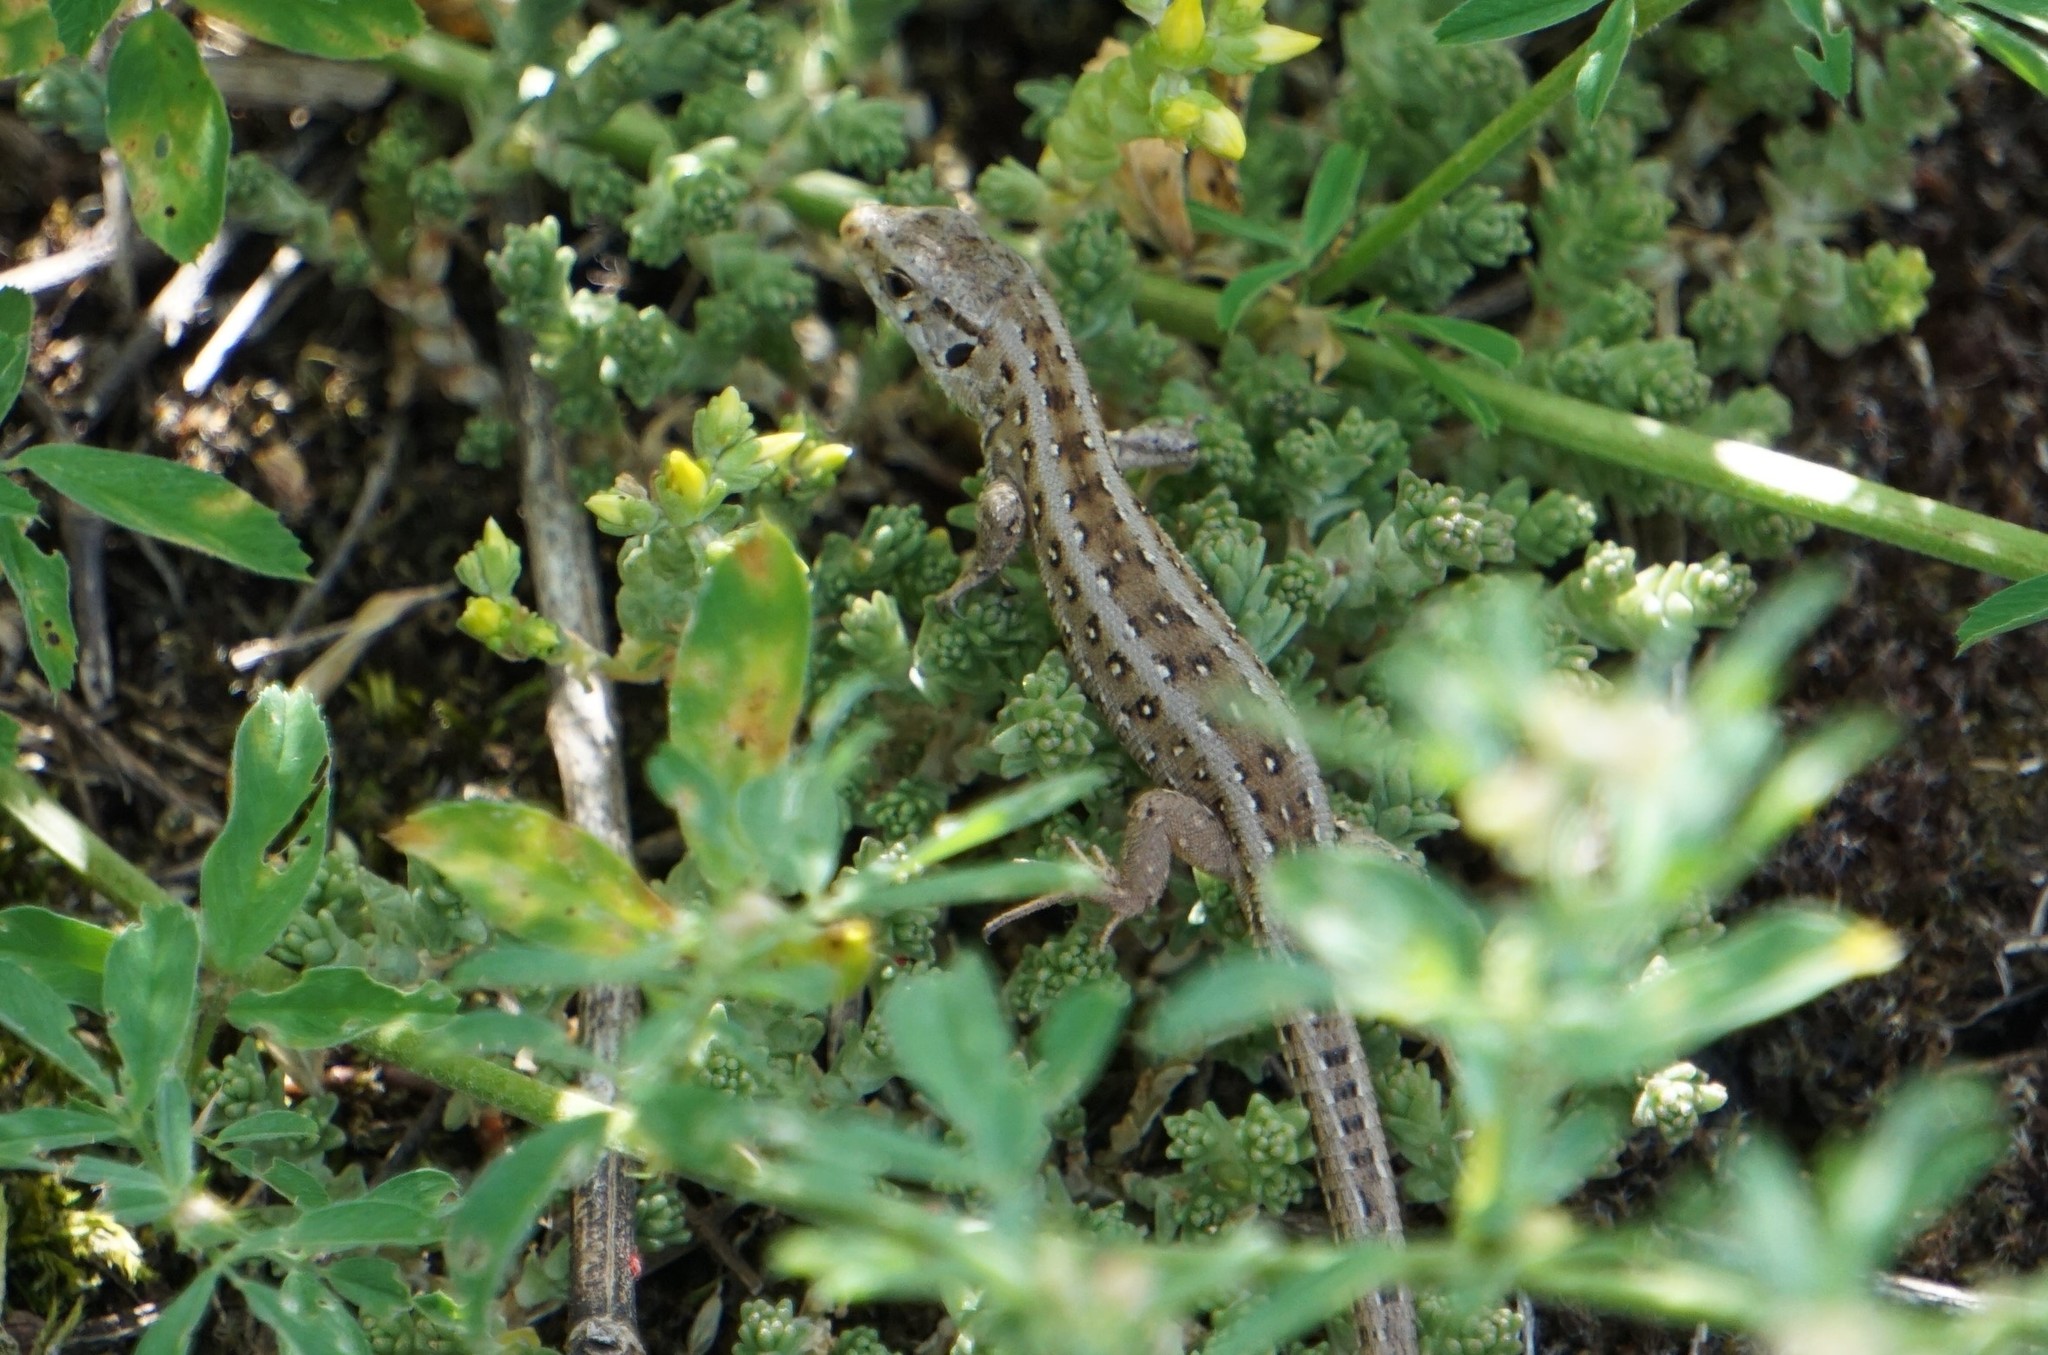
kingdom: Animalia
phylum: Chordata
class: Squamata
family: Lacertidae
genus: Lacerta
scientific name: Lacerta agilis
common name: Sand lizard
